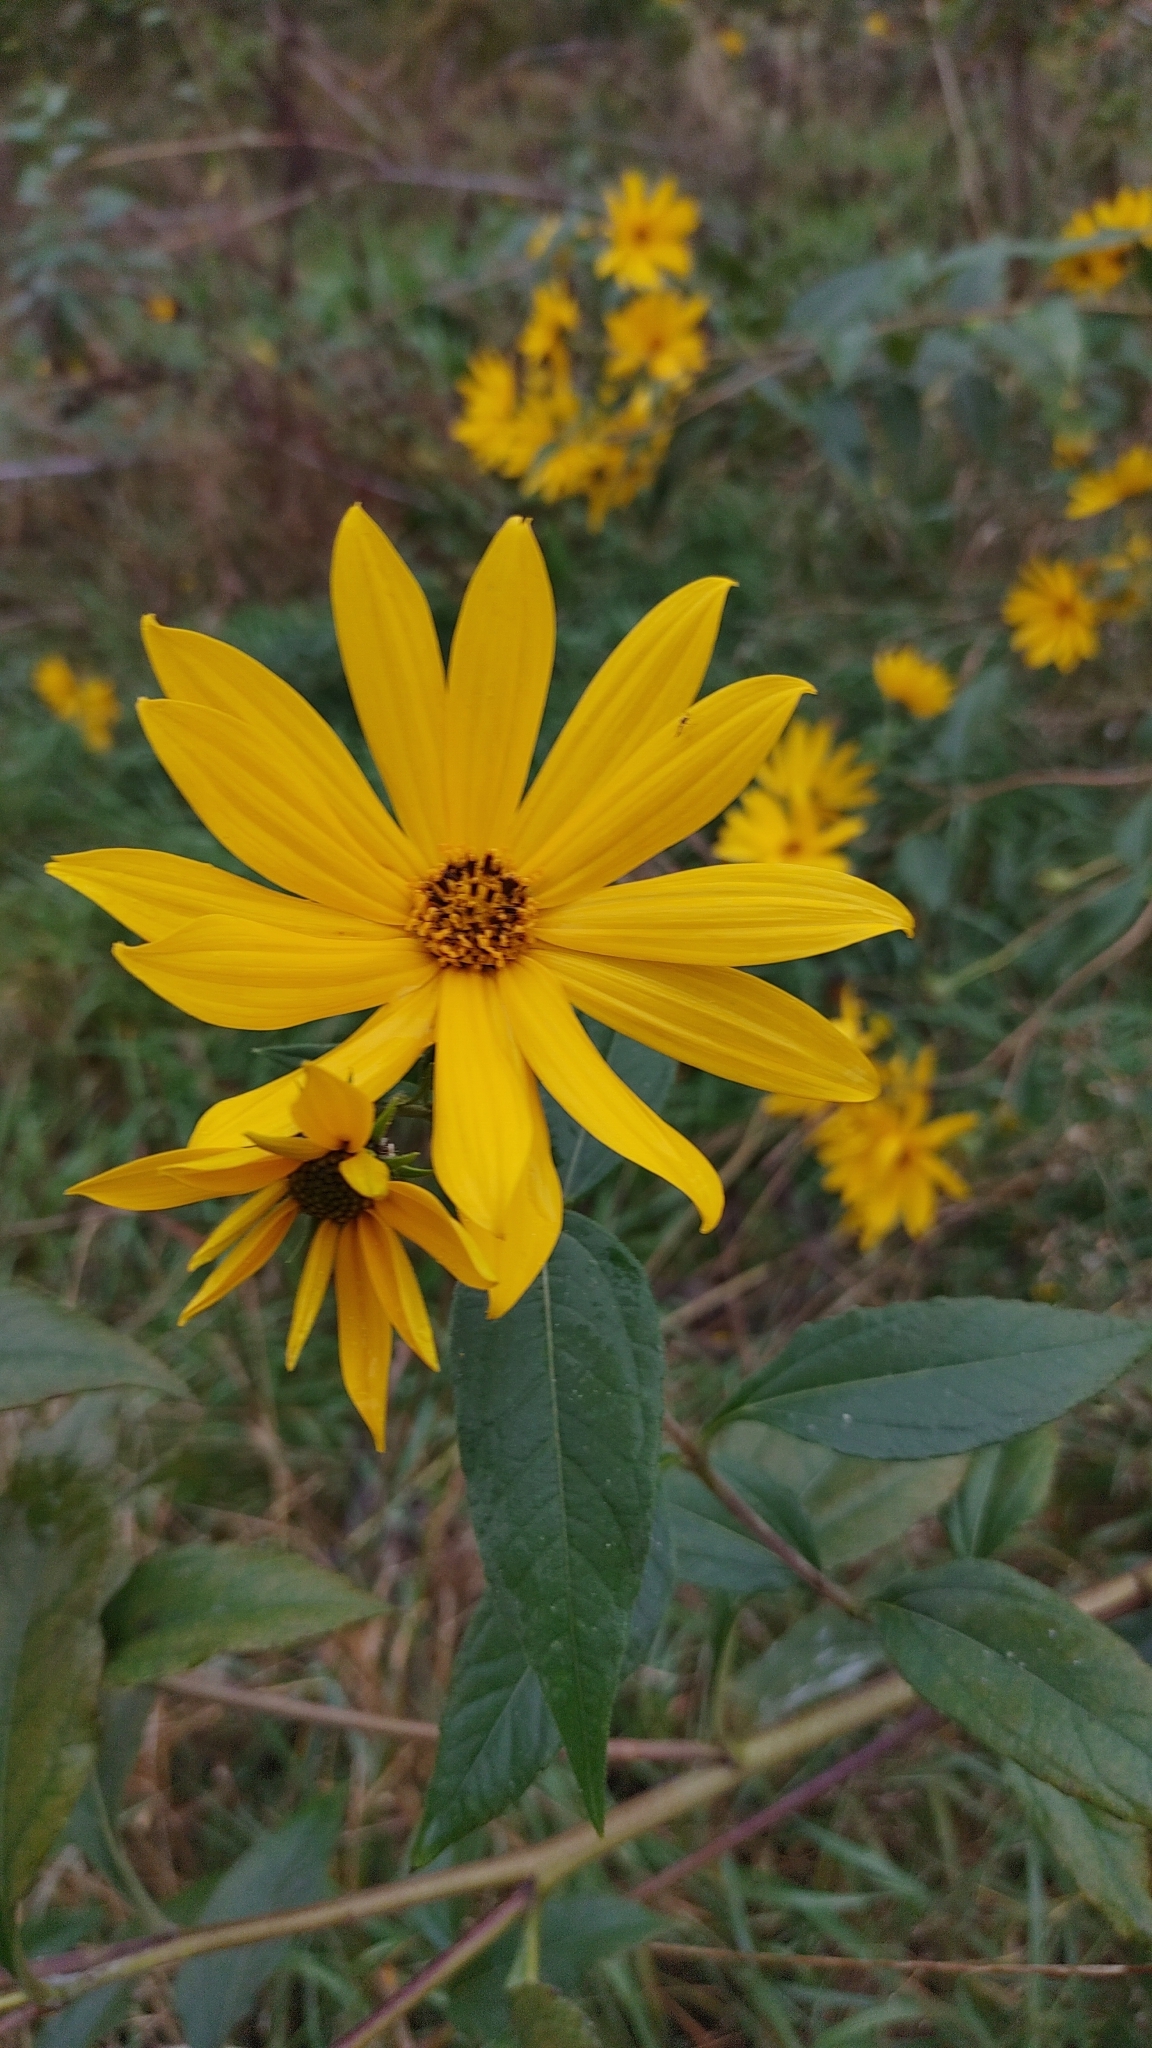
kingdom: Plantae
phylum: Tracheophyta
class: Magnoliopsida
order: Asterales
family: Asteraceae
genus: Helianthus
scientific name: Helianthus tuberosus
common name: Jerusalem artichoke
